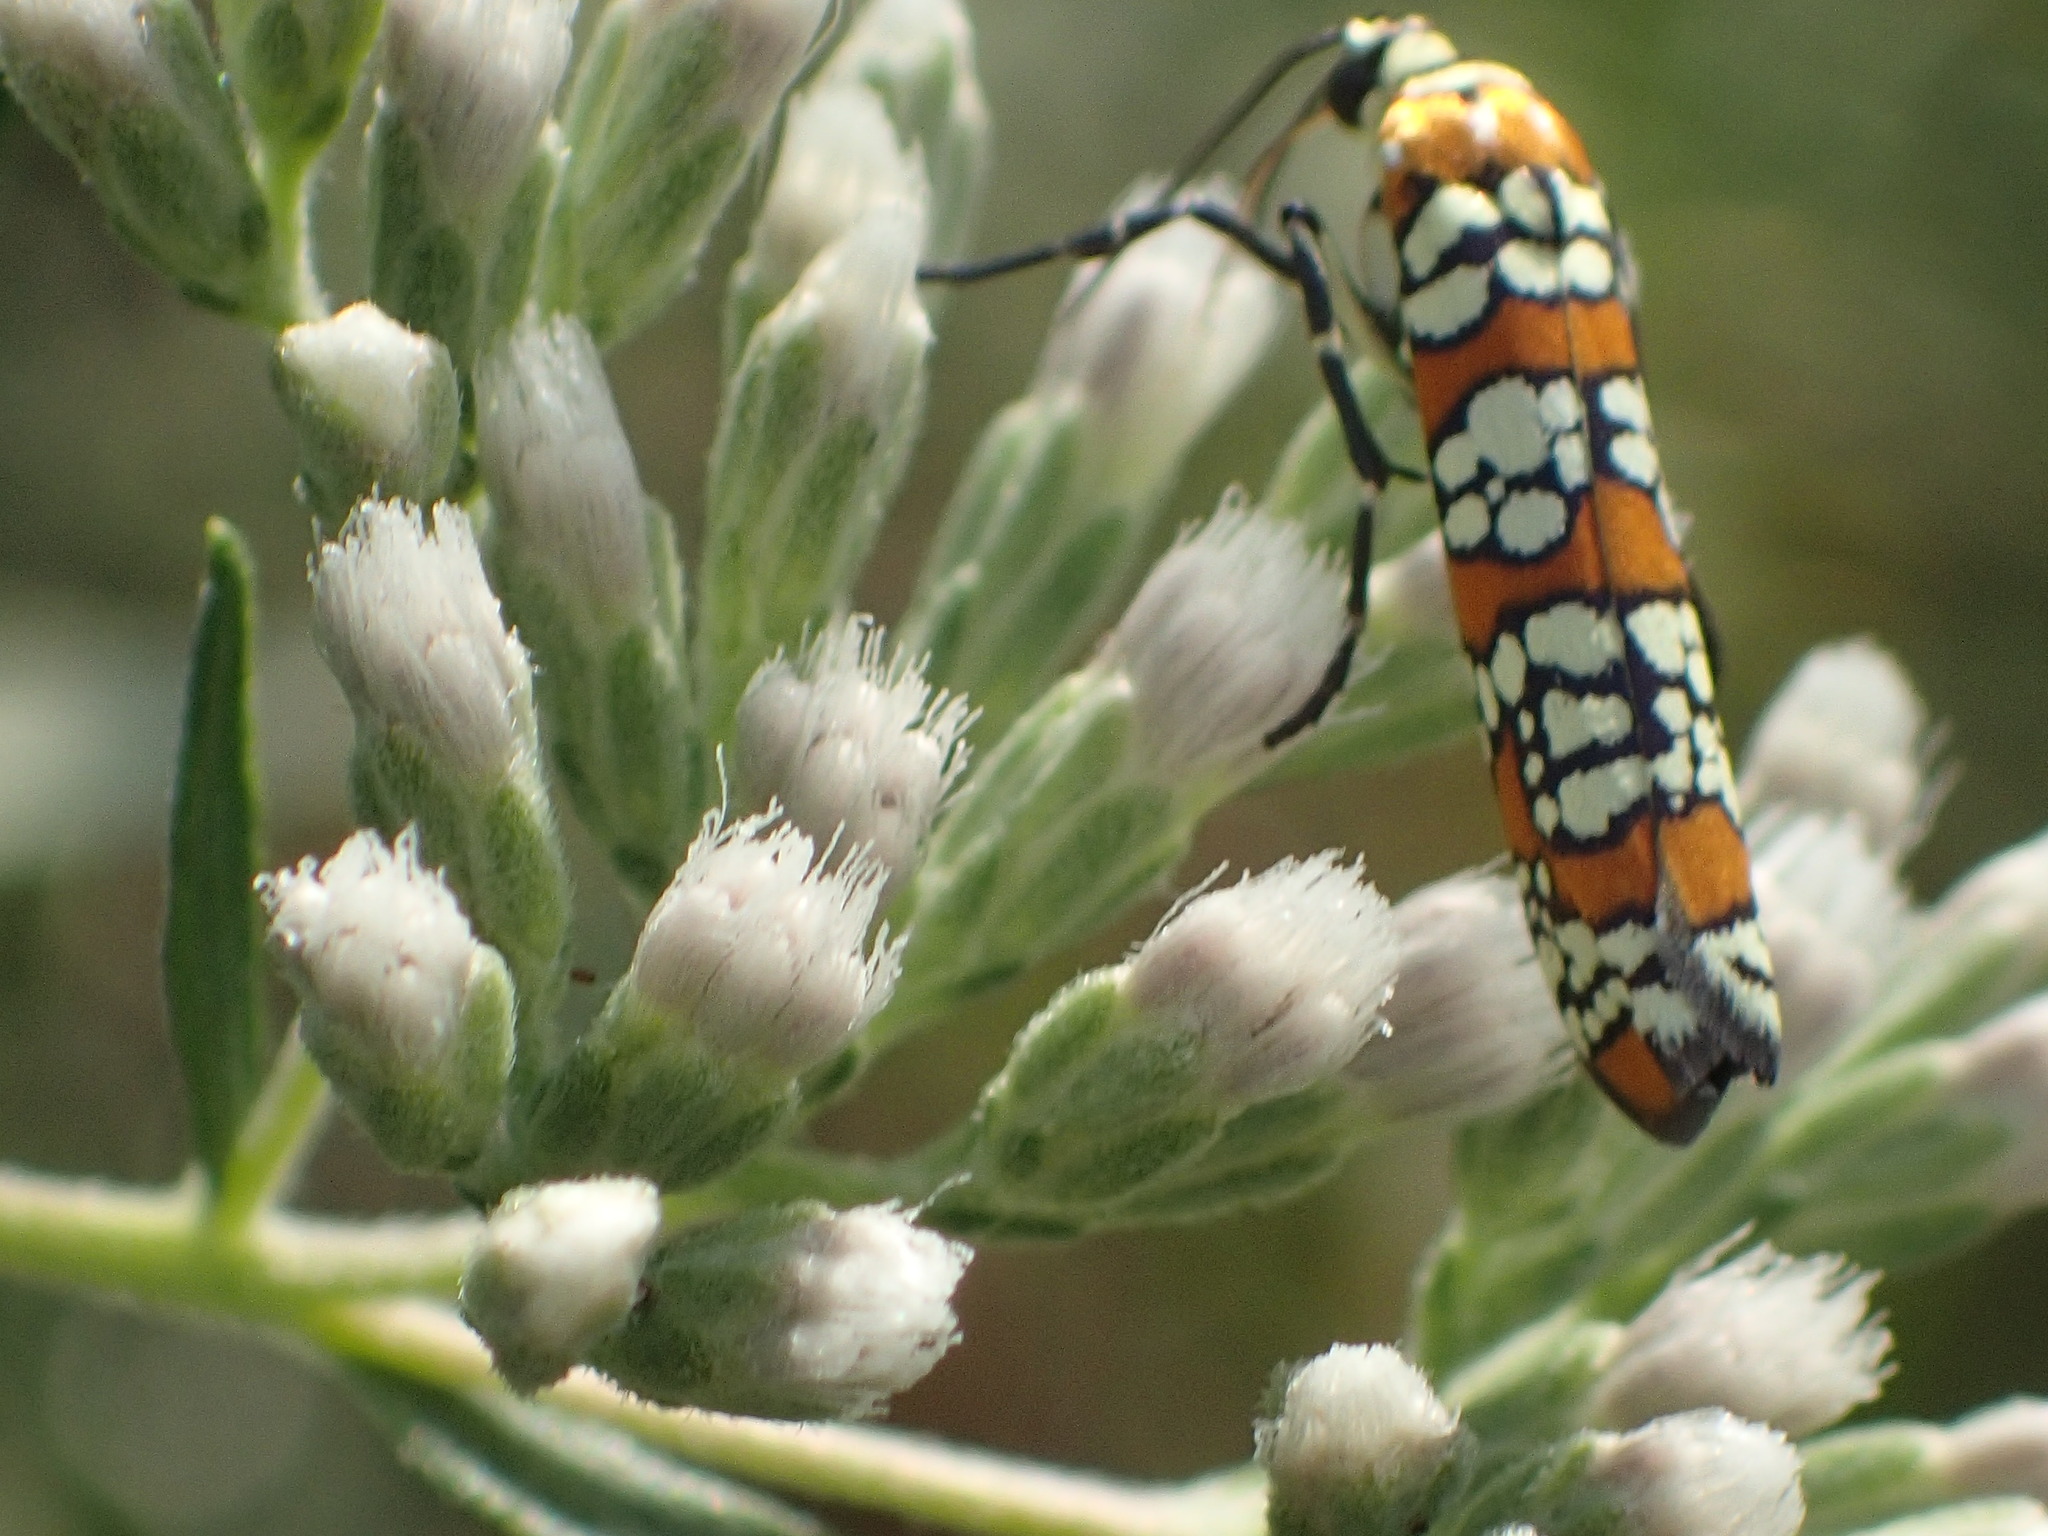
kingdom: Animalia
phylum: Arthropoda
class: Insecta
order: Lepidoptera
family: Attevidae
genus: Atteva
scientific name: Atteva punctella
